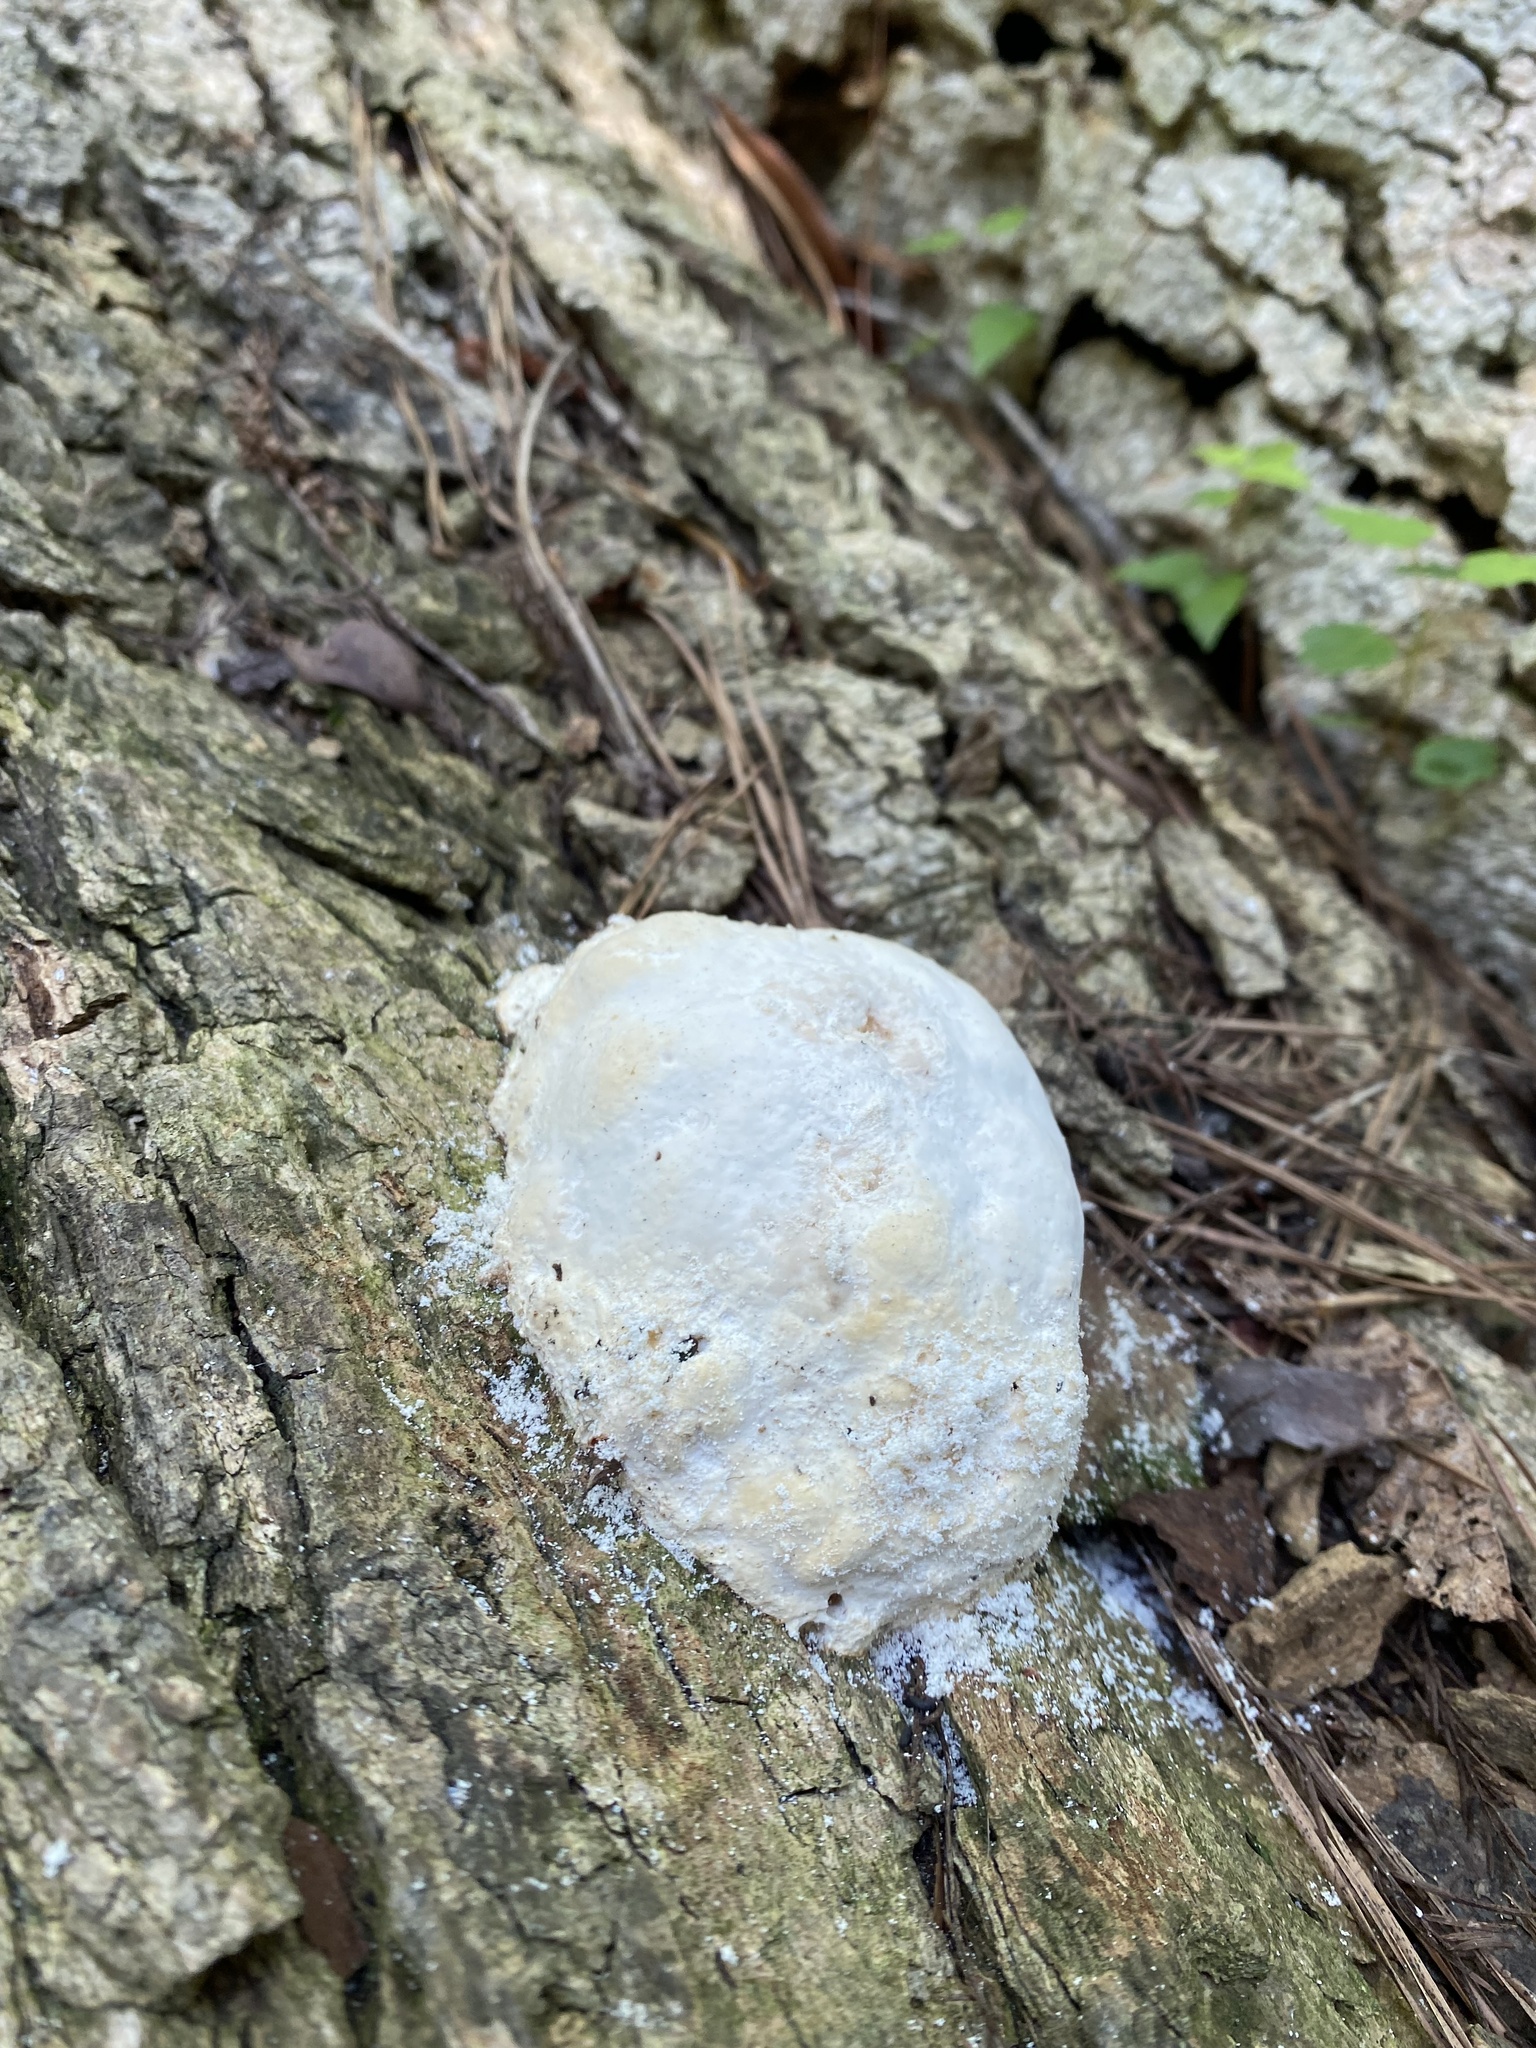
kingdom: Protozoa
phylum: Mycetozoa
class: Myxomycetes
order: Cribrariales
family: Tubiferaceae
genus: Reticularia
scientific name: Reticularia lycoperdon
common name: False puffball
